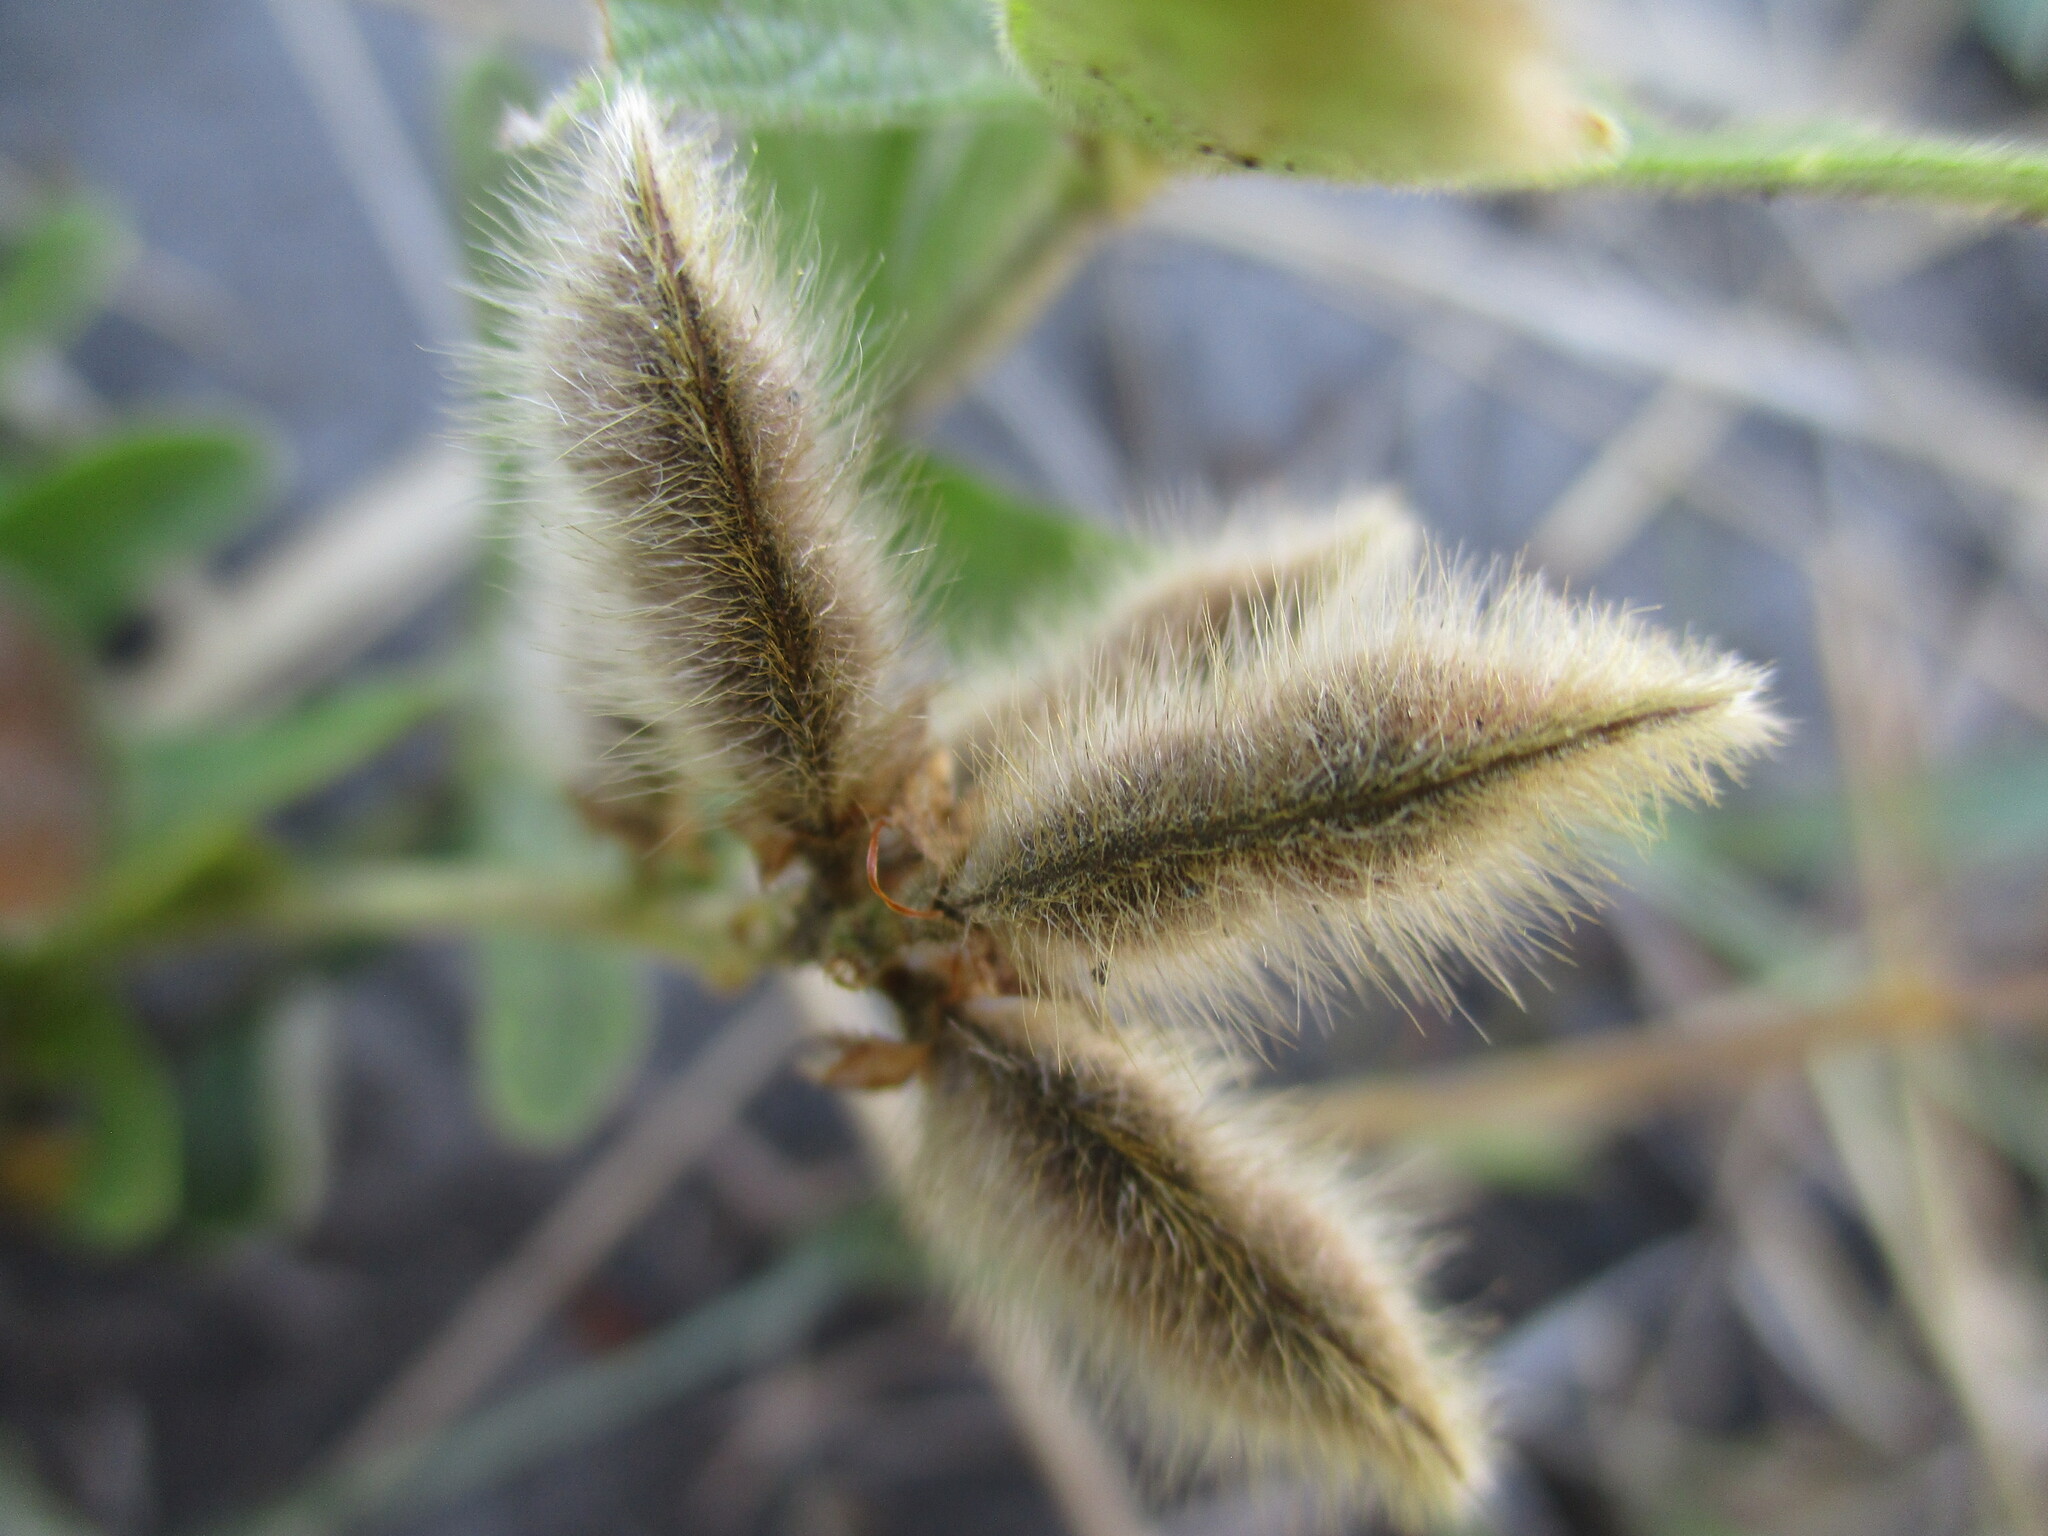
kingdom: Plantae
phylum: Tracheophyta
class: Magnoliopsida
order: Fabales
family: Fabaceae
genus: Eriosema
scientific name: Eriosema pauciflorum
